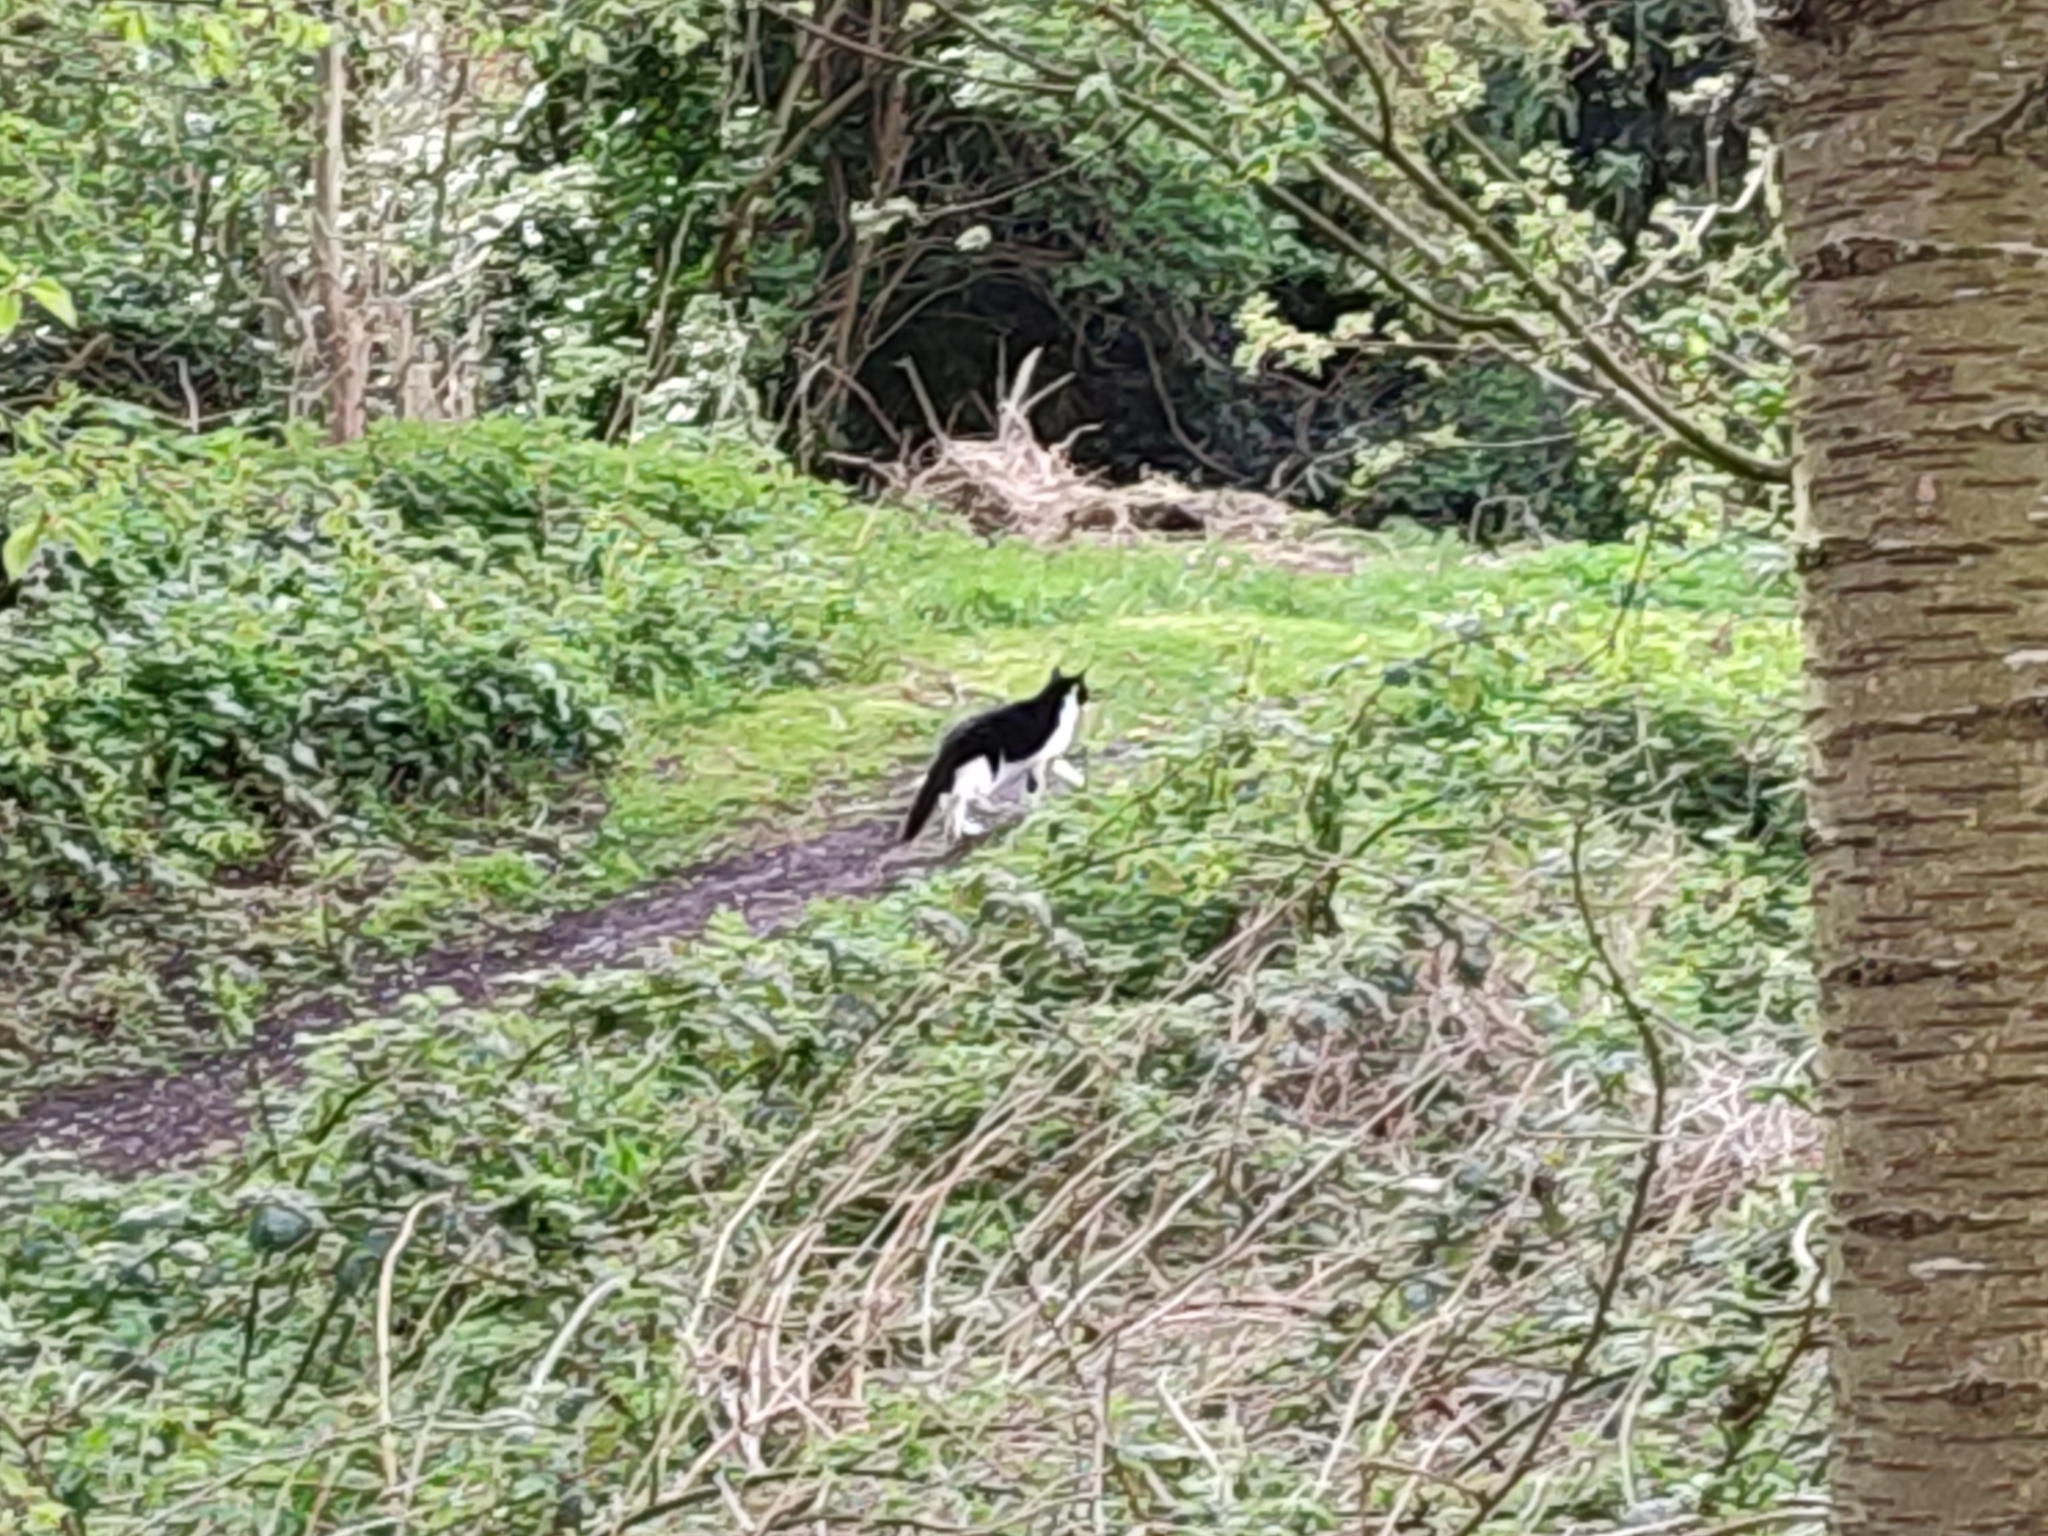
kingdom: Animalia
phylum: Chordata
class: Mammalia
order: Carnivora
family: Felidae
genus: Felis
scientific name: Felis catus
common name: Domestic cat
